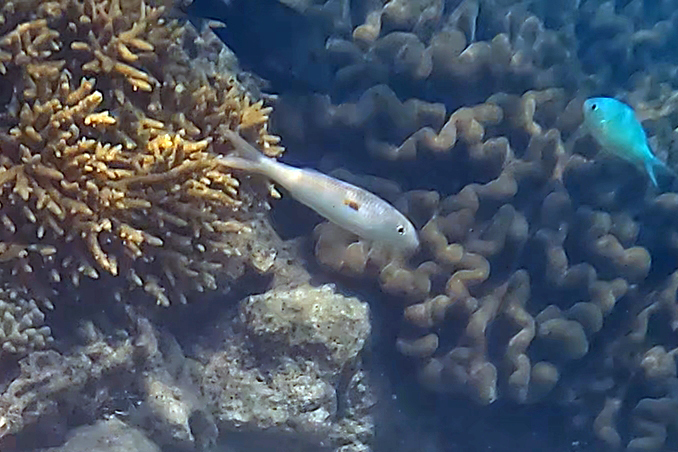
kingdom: Animalia
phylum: Chordata
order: Perciformes
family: Mullidae
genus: Mulloidichthys
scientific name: Mulloidichthys flavolineatus
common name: Yellowstripe goatfish
